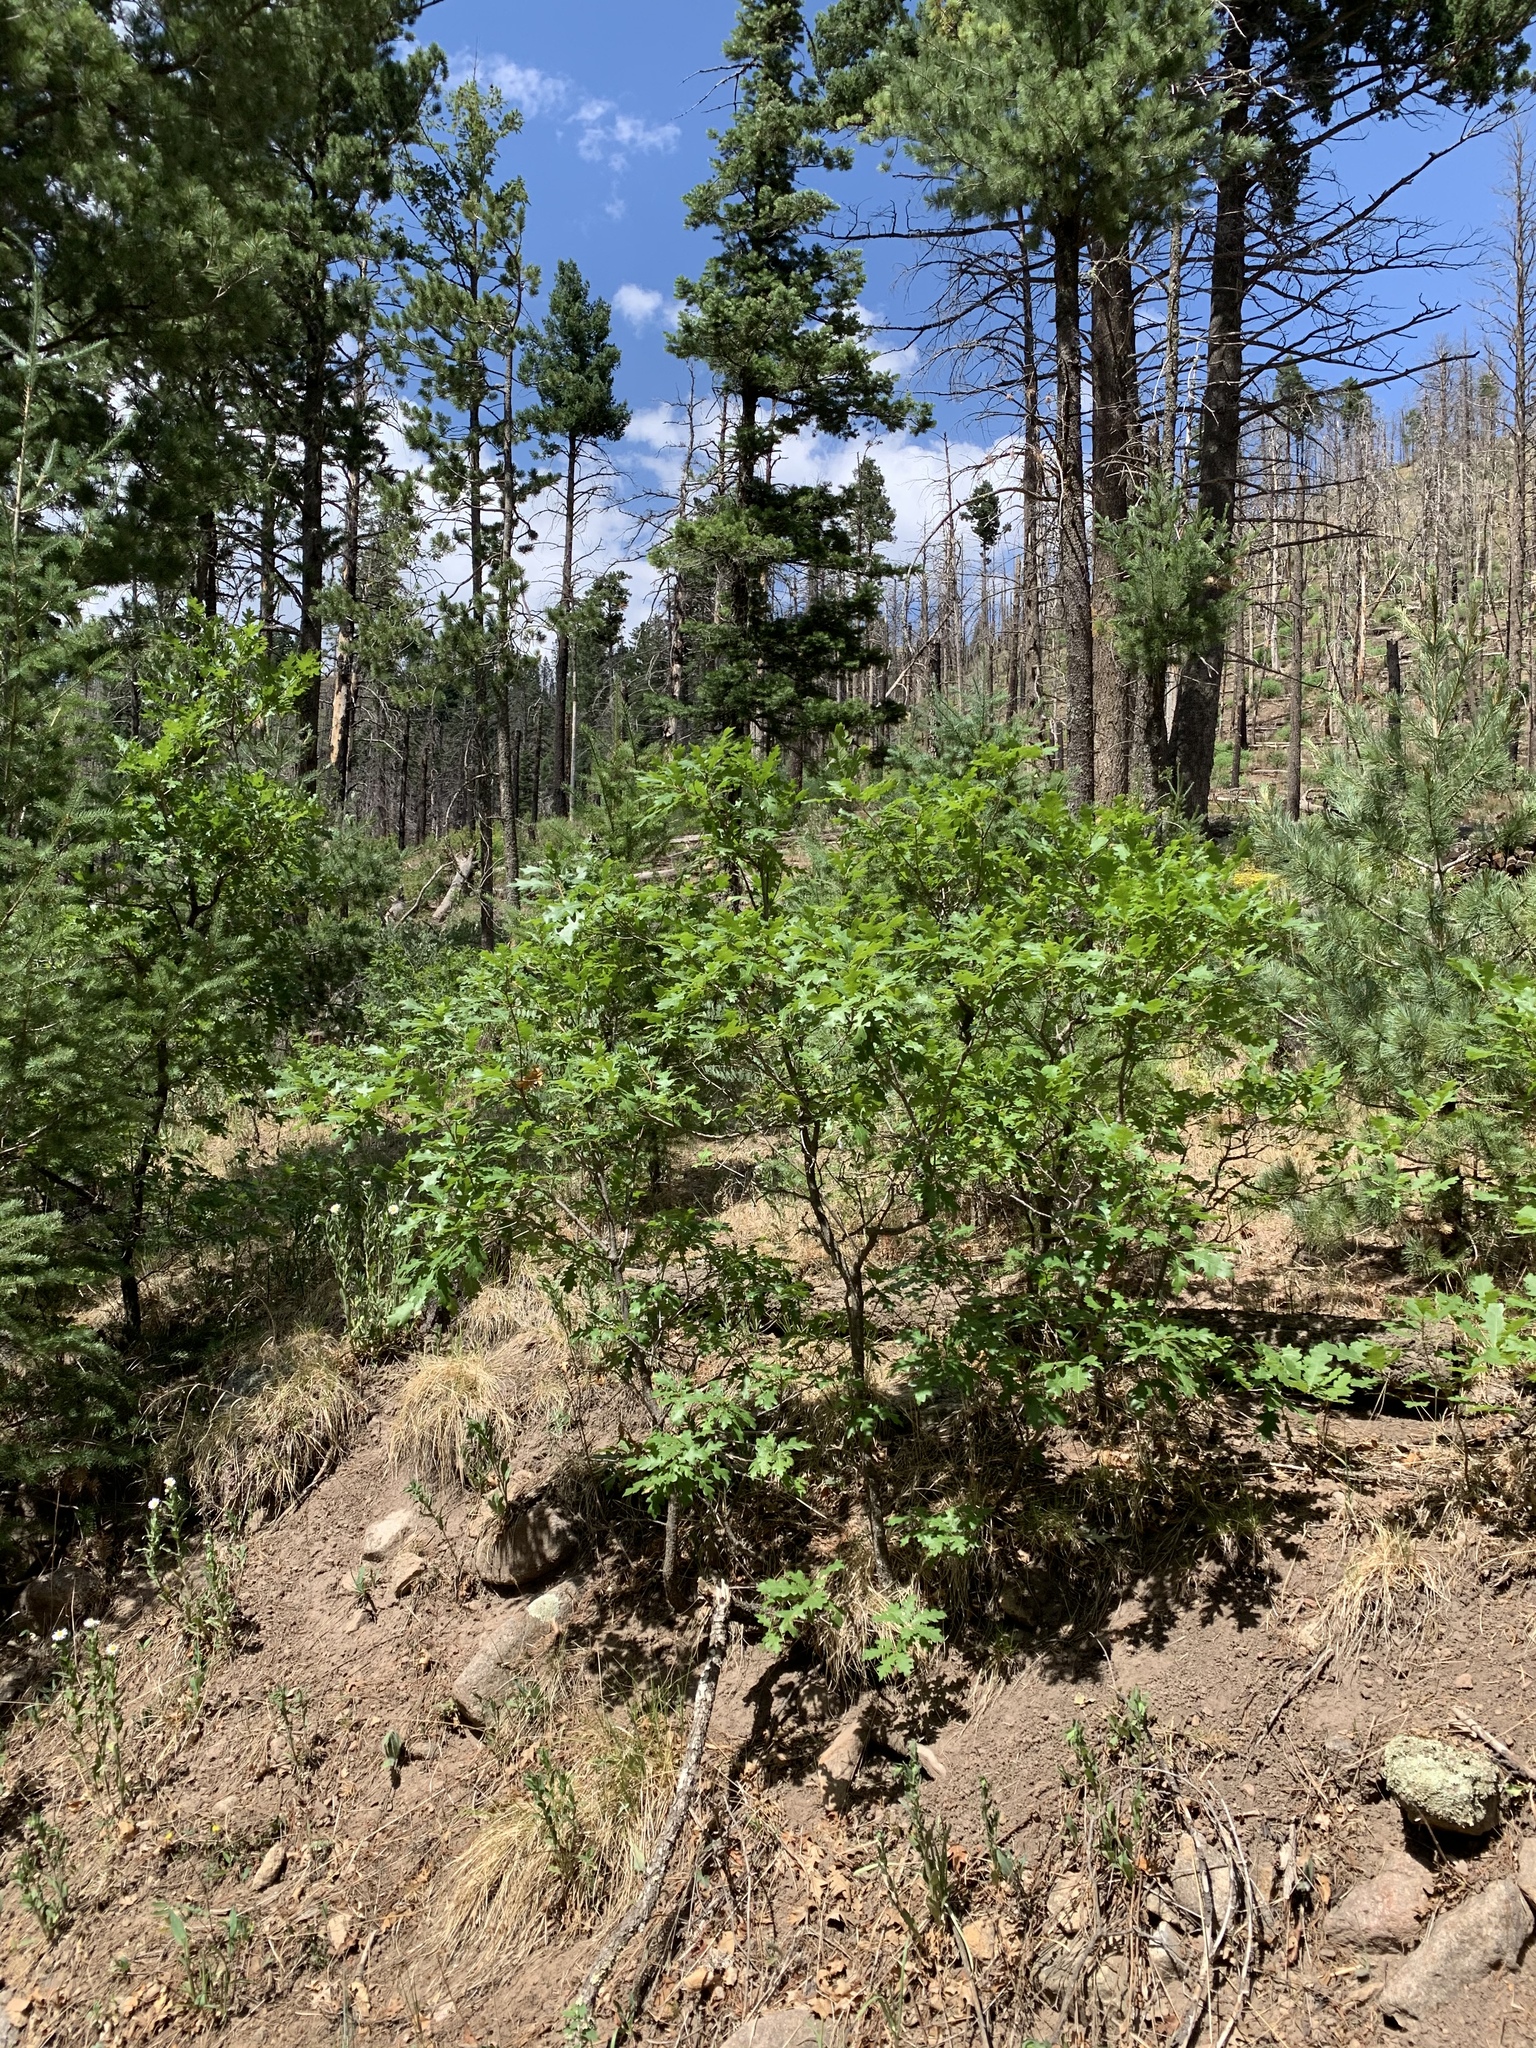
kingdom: Plantae
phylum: Tracheophyta
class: Magnoliopsida
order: Fagales
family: Fagaceae
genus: Quercus
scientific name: Quercus gambelii
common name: Gambel oak
